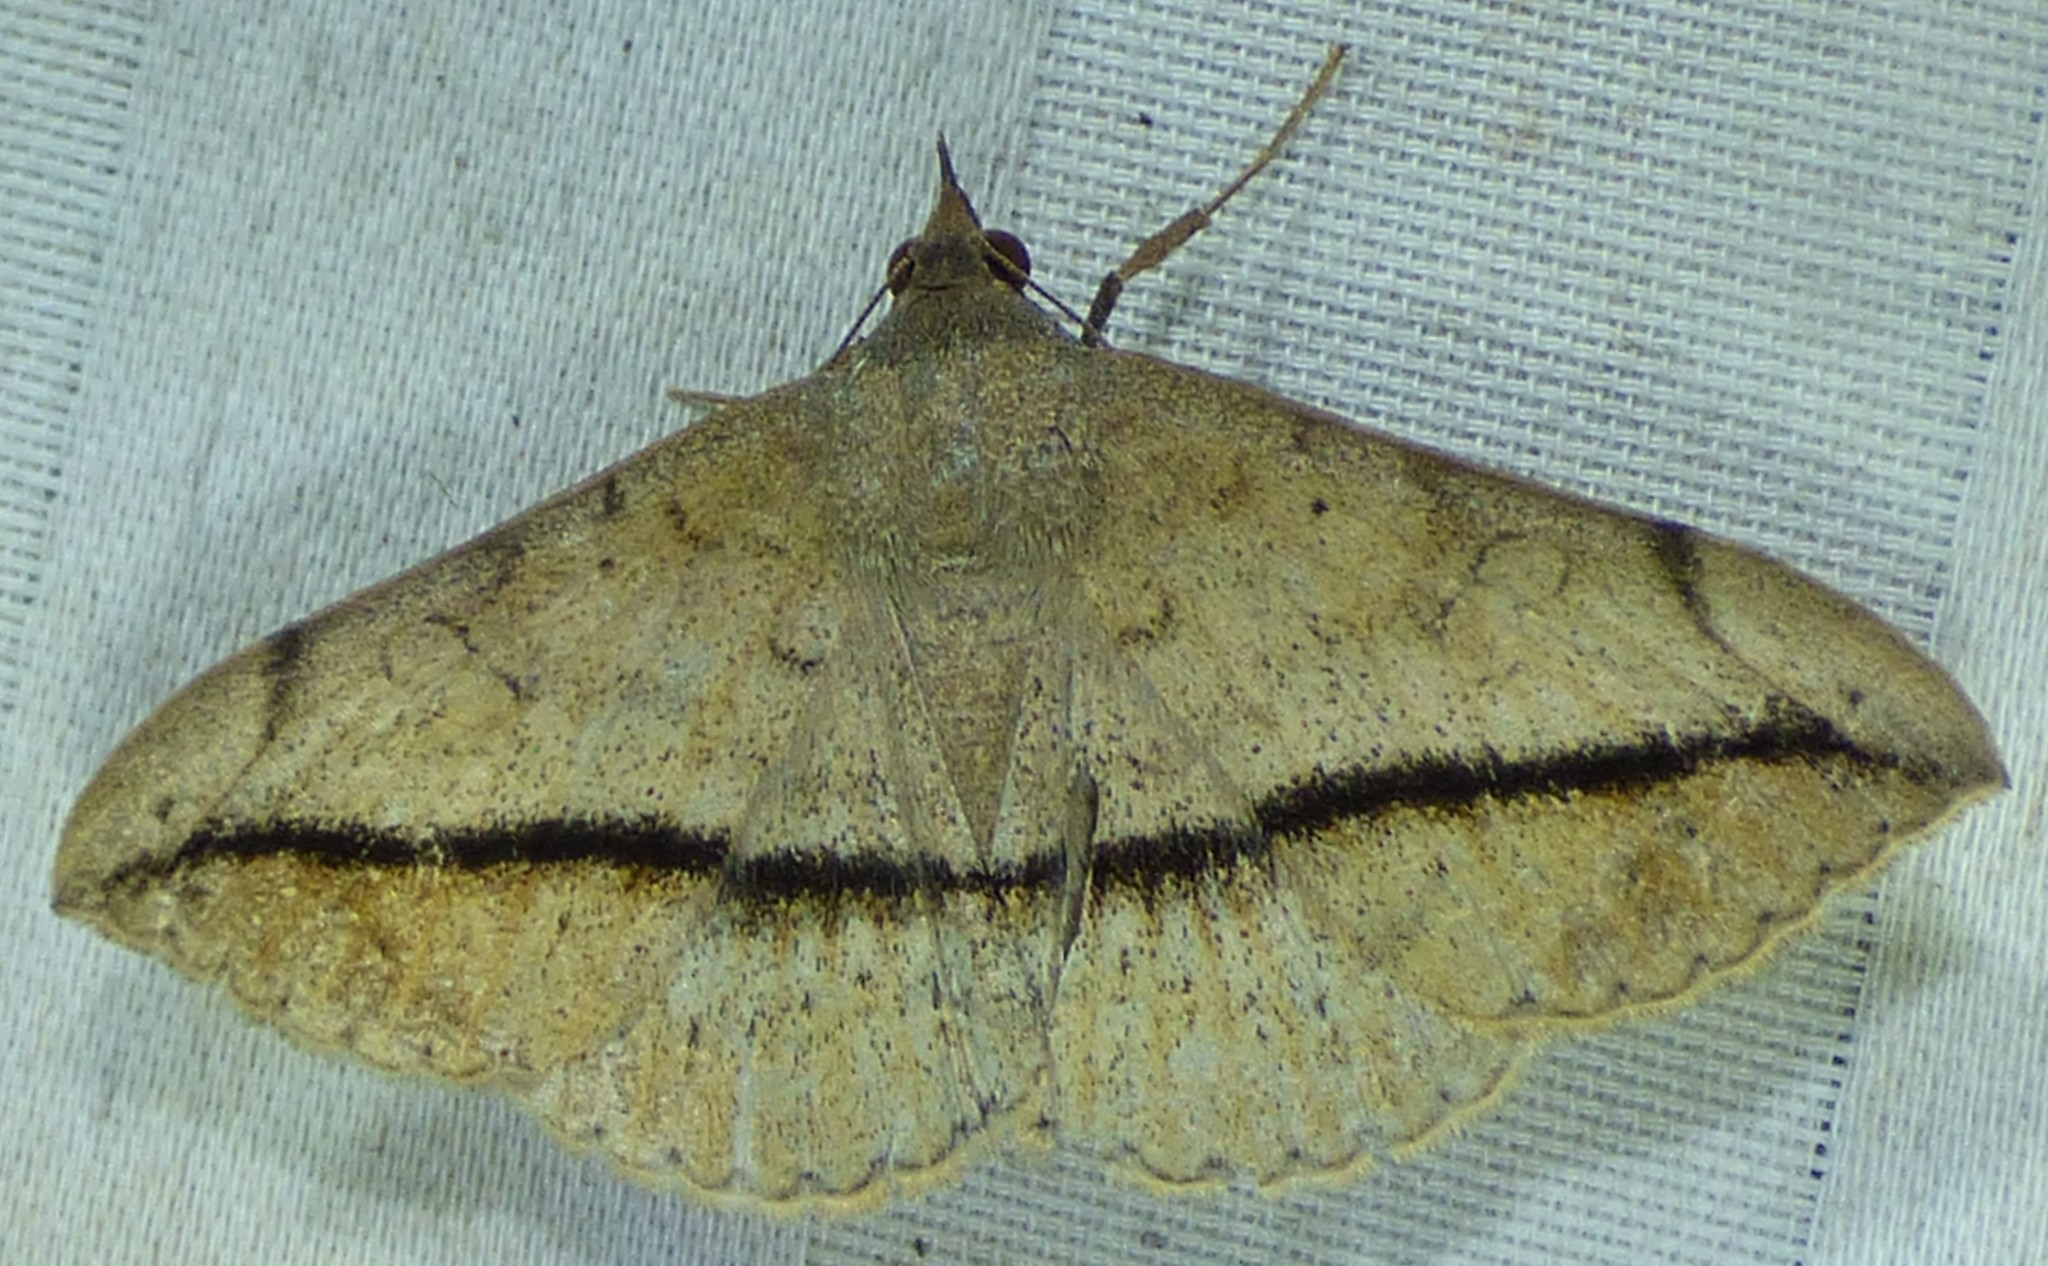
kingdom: Animalia
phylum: Arthropoda
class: Insecta
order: Lepidoptera
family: Erebidae
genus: Anticarsia
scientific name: Anticarsia gemmatalis
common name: Cutworm moth
